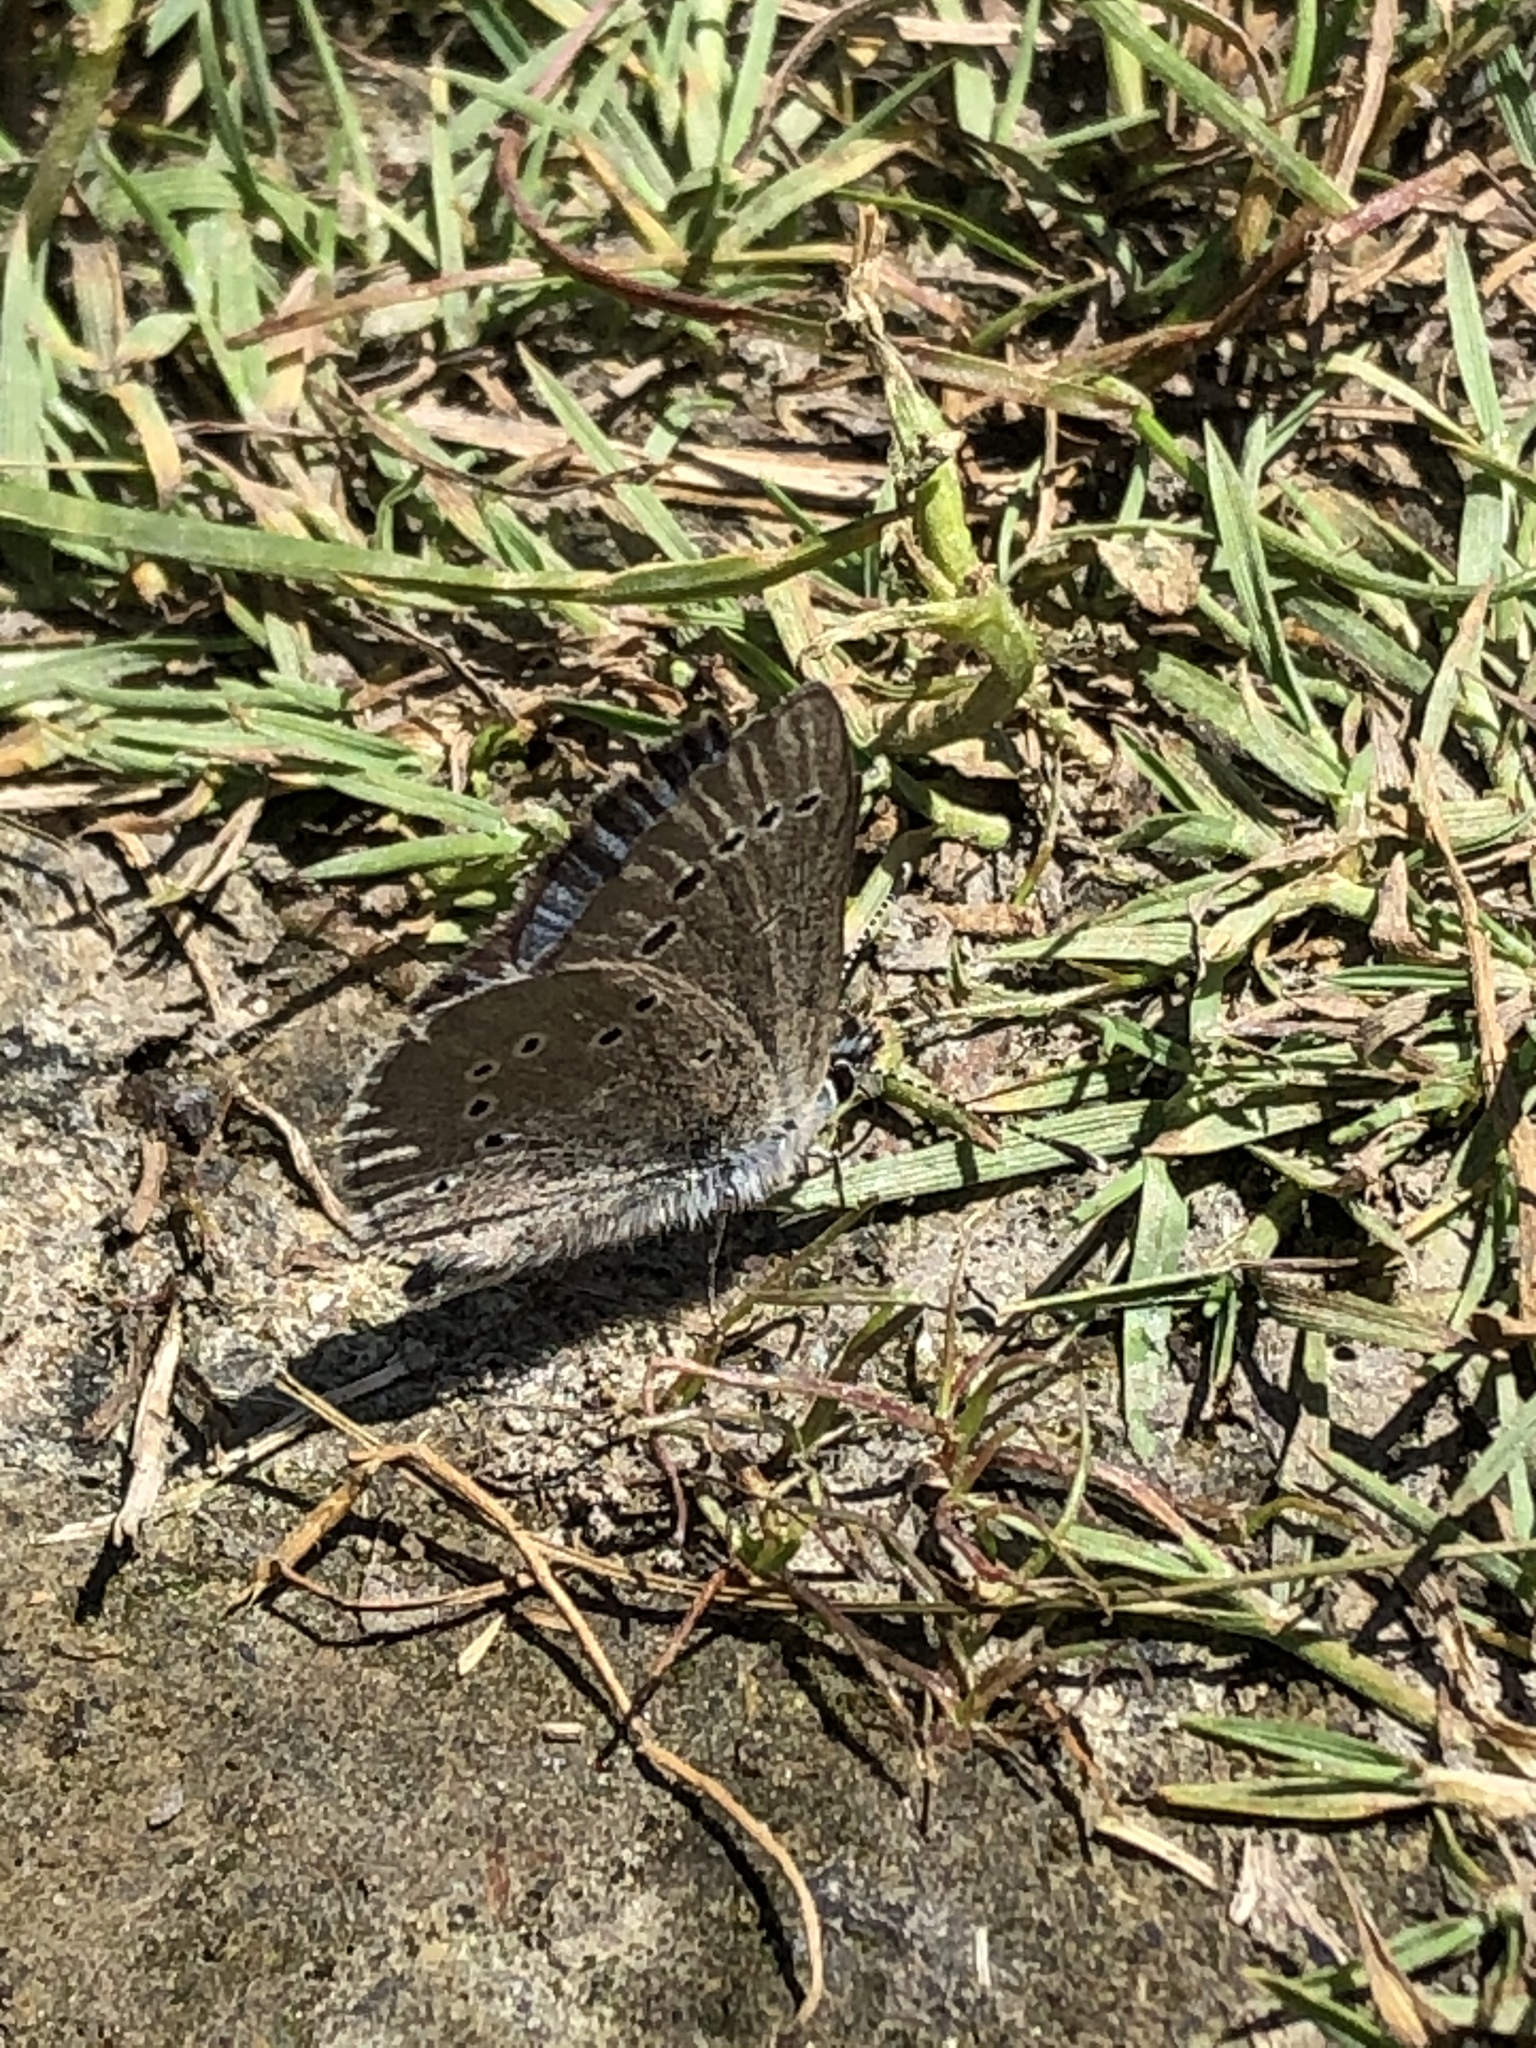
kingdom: Animalia
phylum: Arthropoda
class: Insecta
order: Lepidoptera
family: Lycaenidae
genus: Glaucopsyche
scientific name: Glaucopsyche lygdamus
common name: Silvery blue
